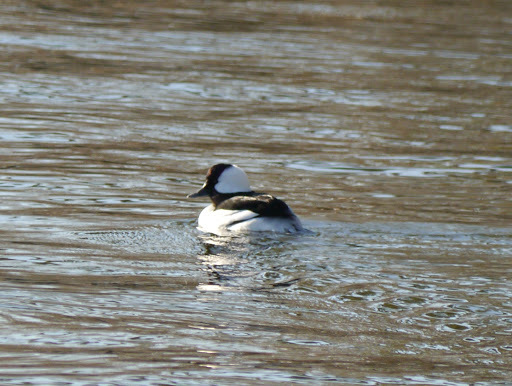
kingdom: Animalia
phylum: Chordata
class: Aves
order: Anseriformes
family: Anatidae
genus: Bucephala
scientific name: Bucephala albeola
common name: Bufflehead
